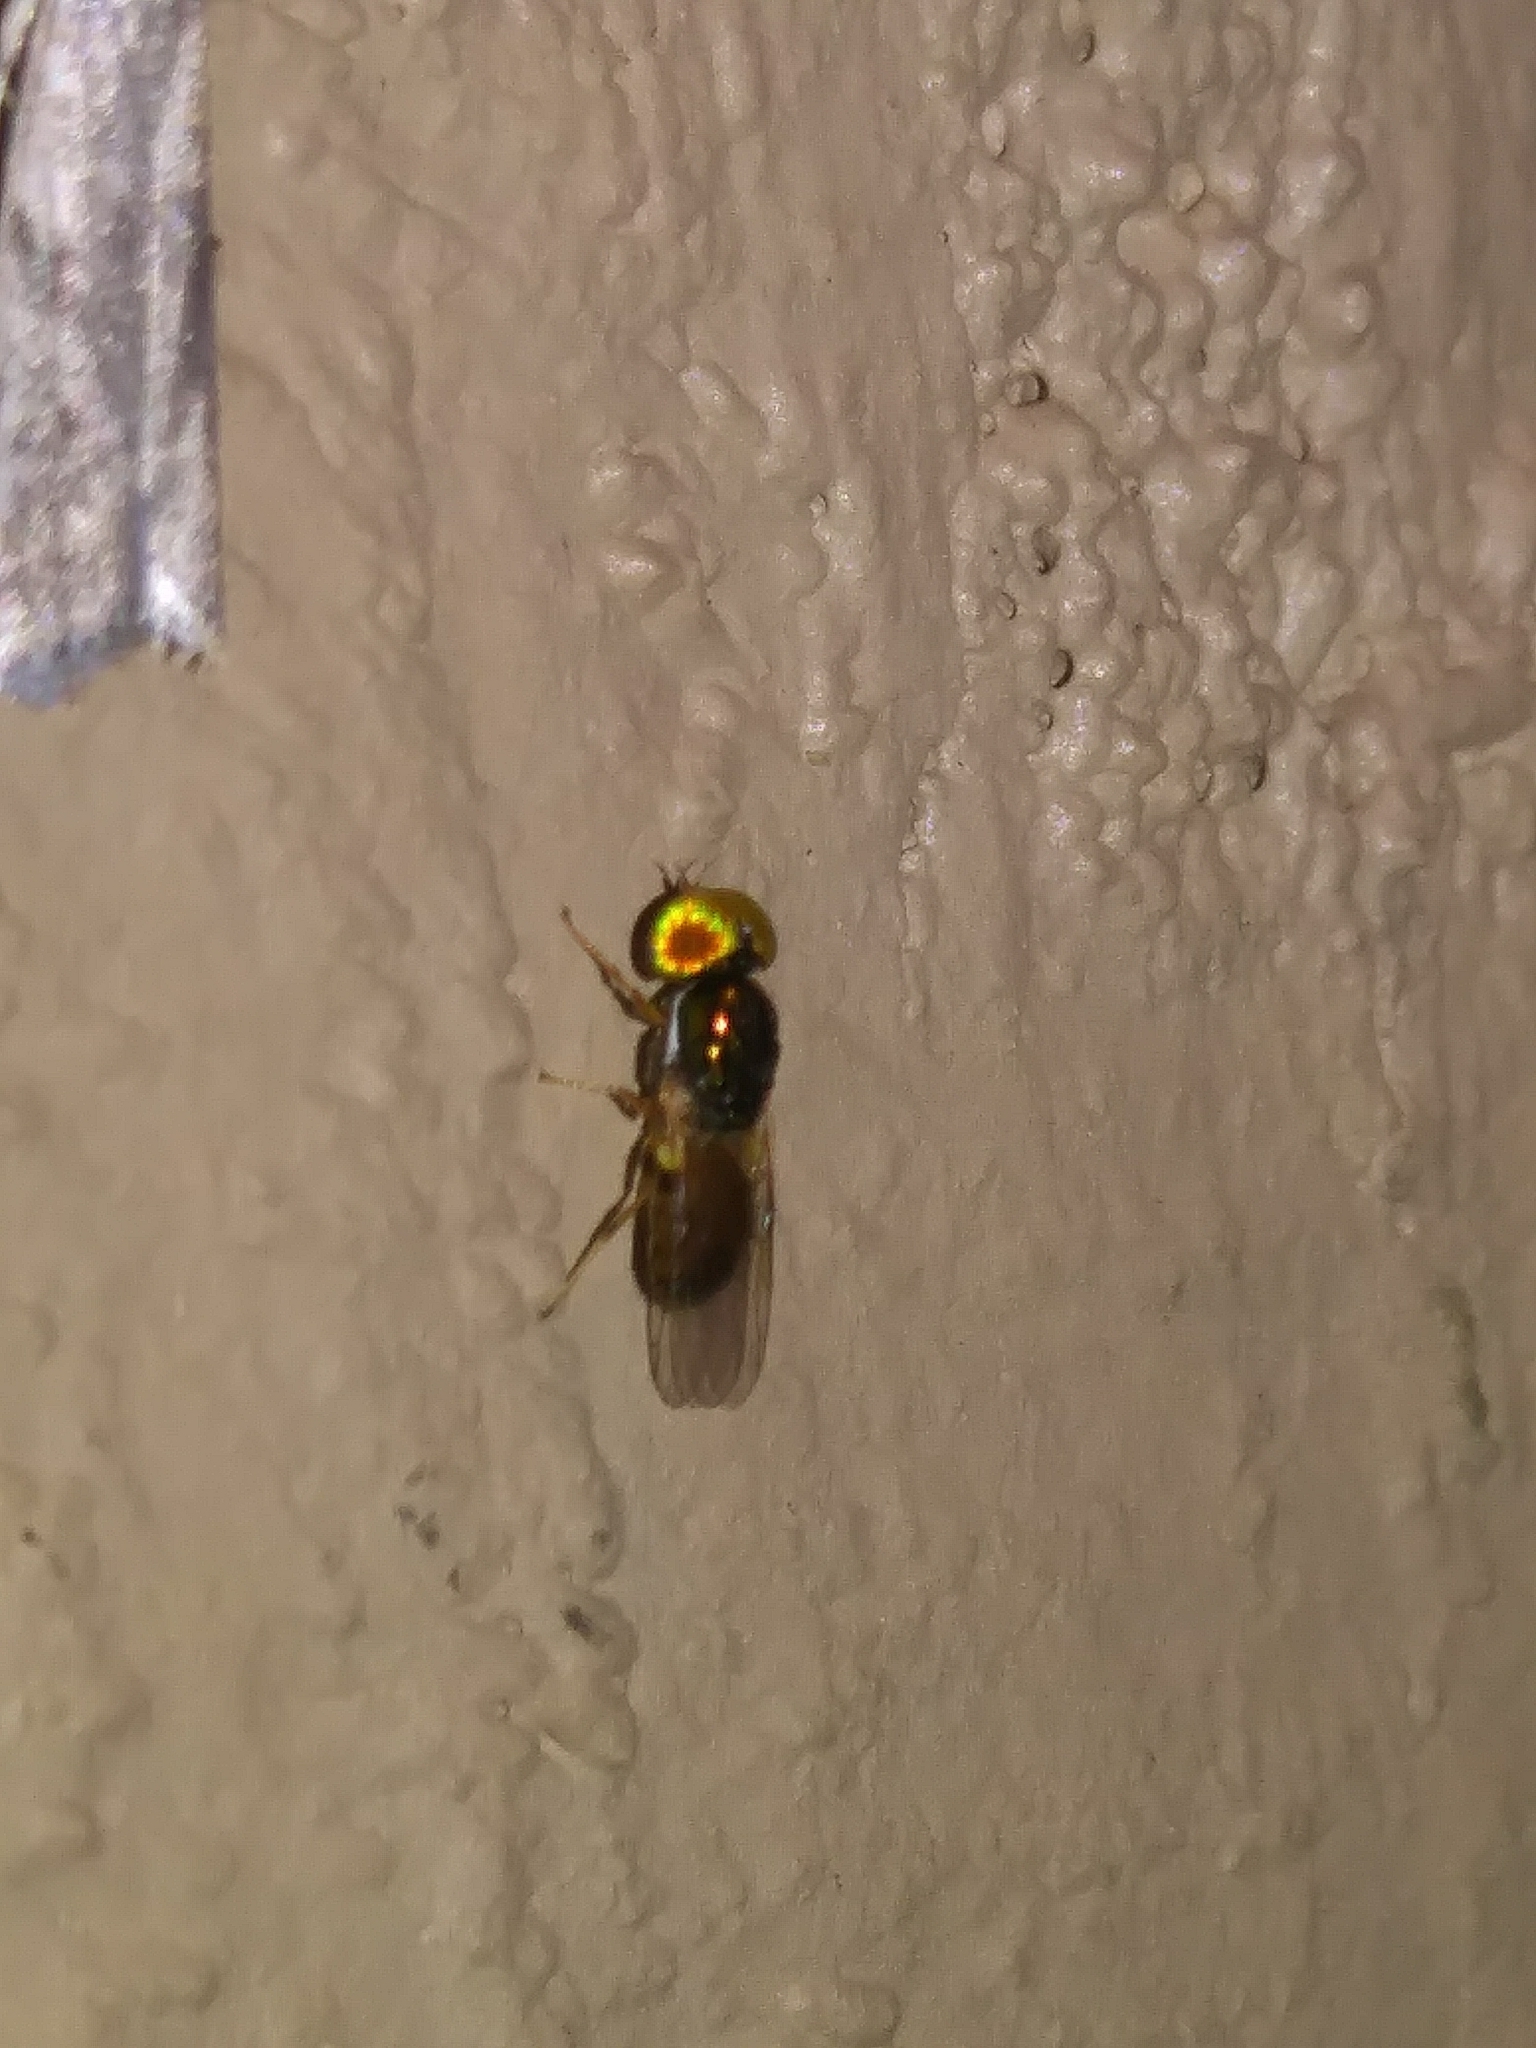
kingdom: Animalia
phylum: Arthropoda
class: Insecta
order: Diptera
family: Stratiomyidae
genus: Microchrysa
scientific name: Microchrysa flaviventris
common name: Soldier fly
